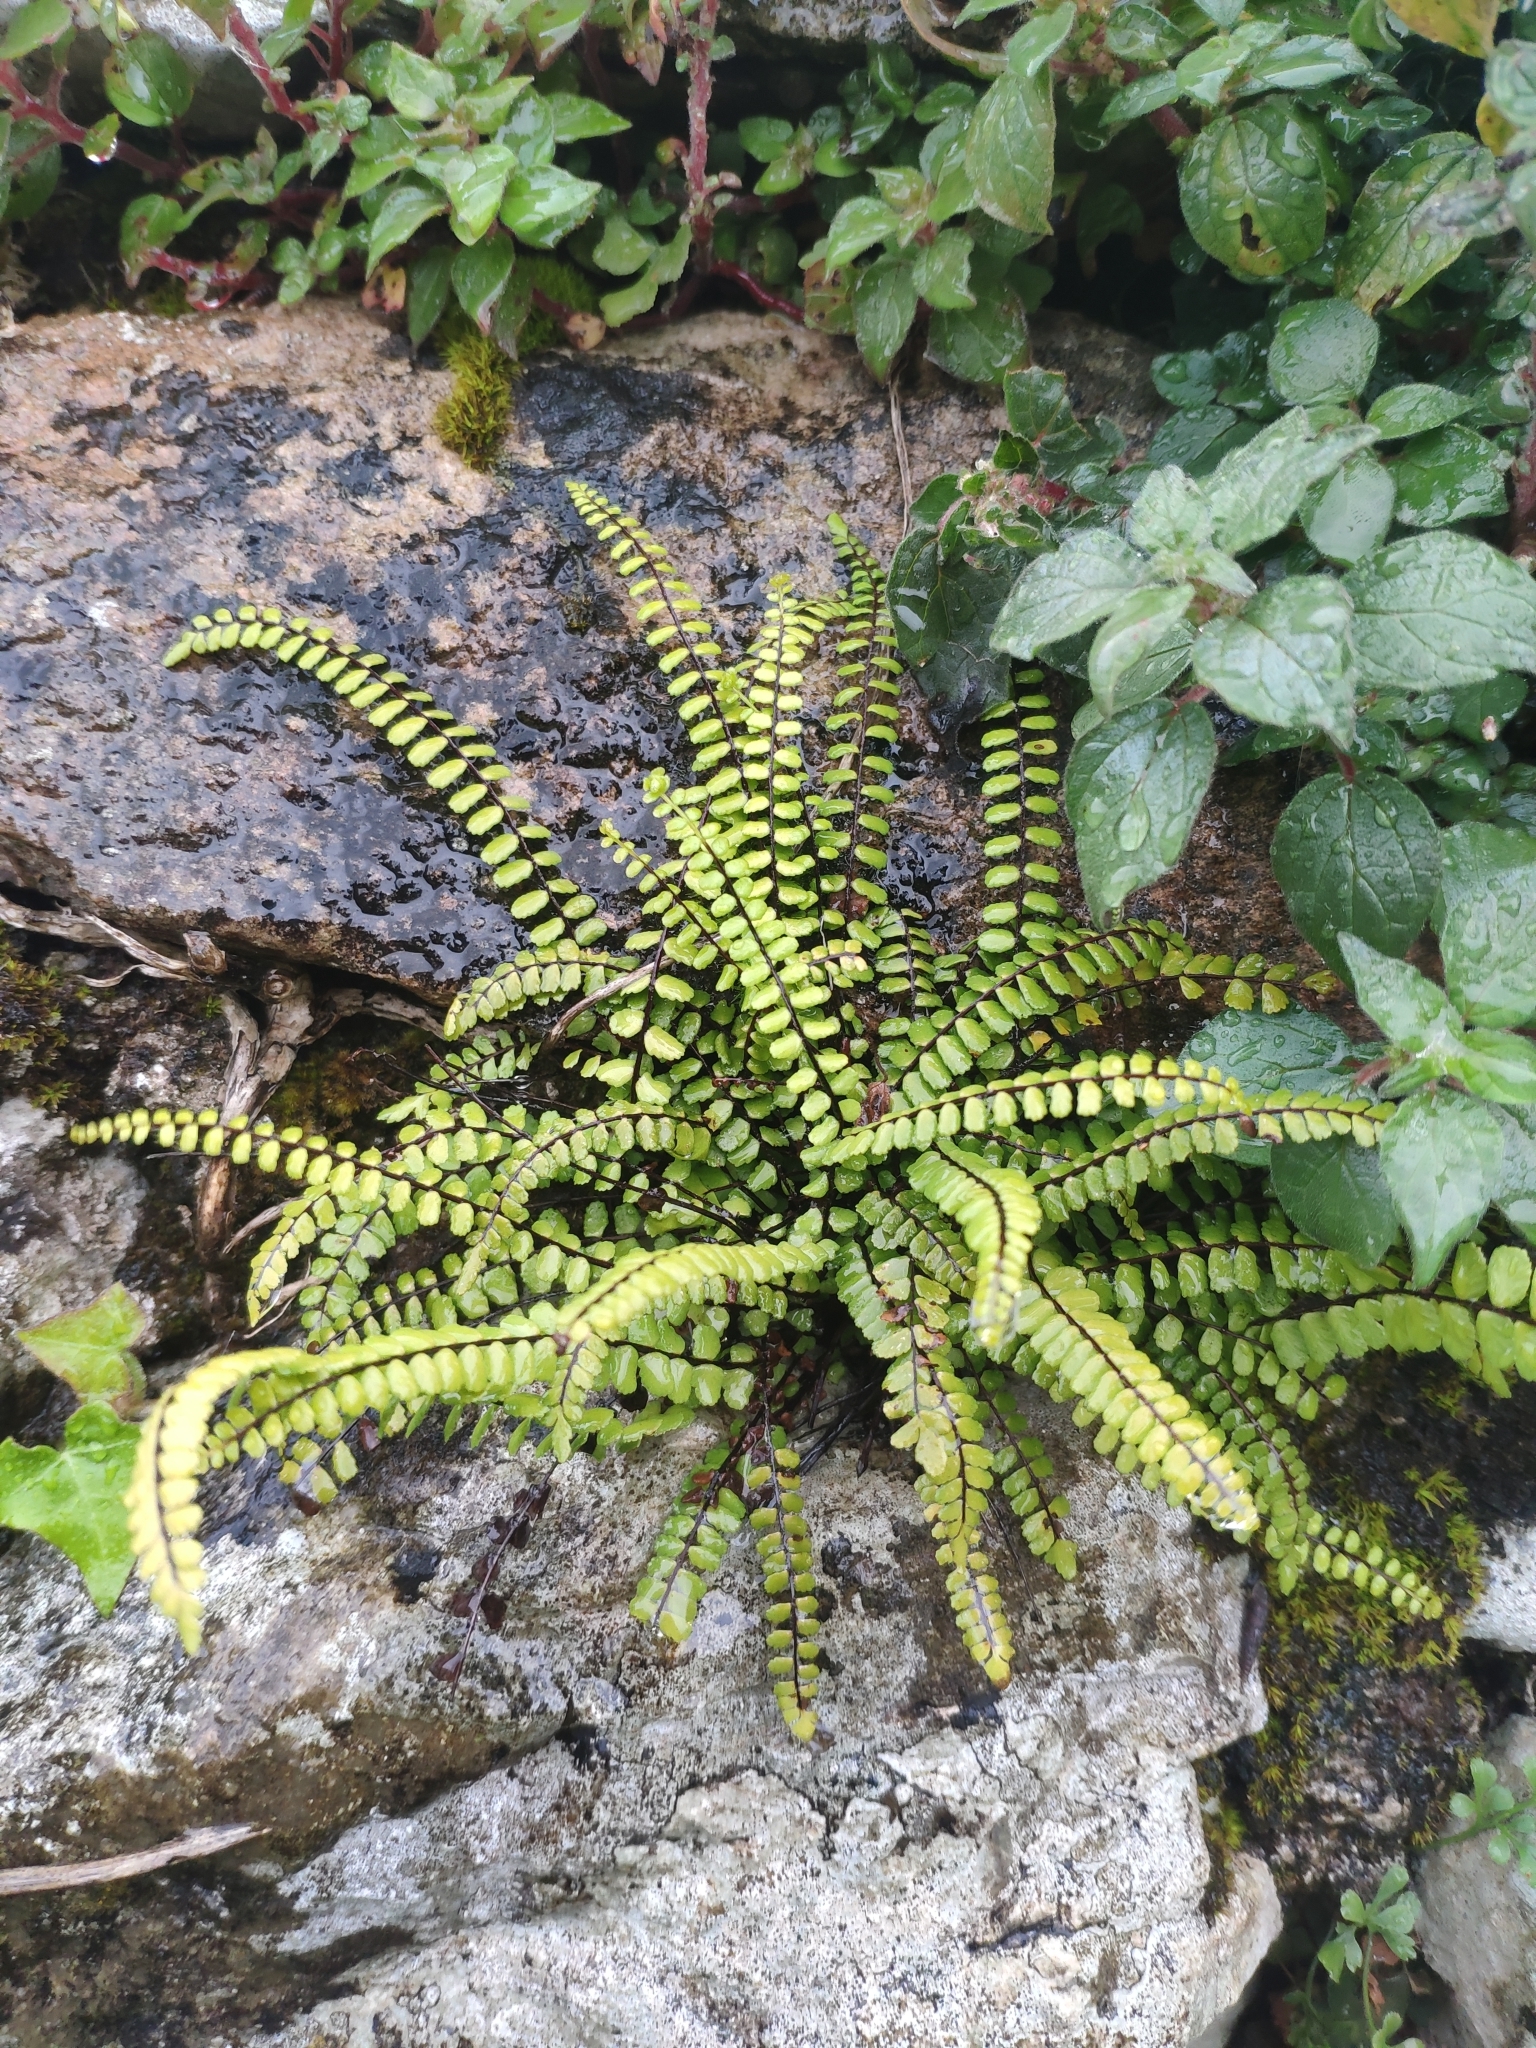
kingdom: Plantae
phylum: Tracheophyta
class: Polypodiopsida
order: Polypodiales
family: Aspleniaceae
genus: Asplenium
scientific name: Asplenium trichomanes
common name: Maidenhair spleenwort
